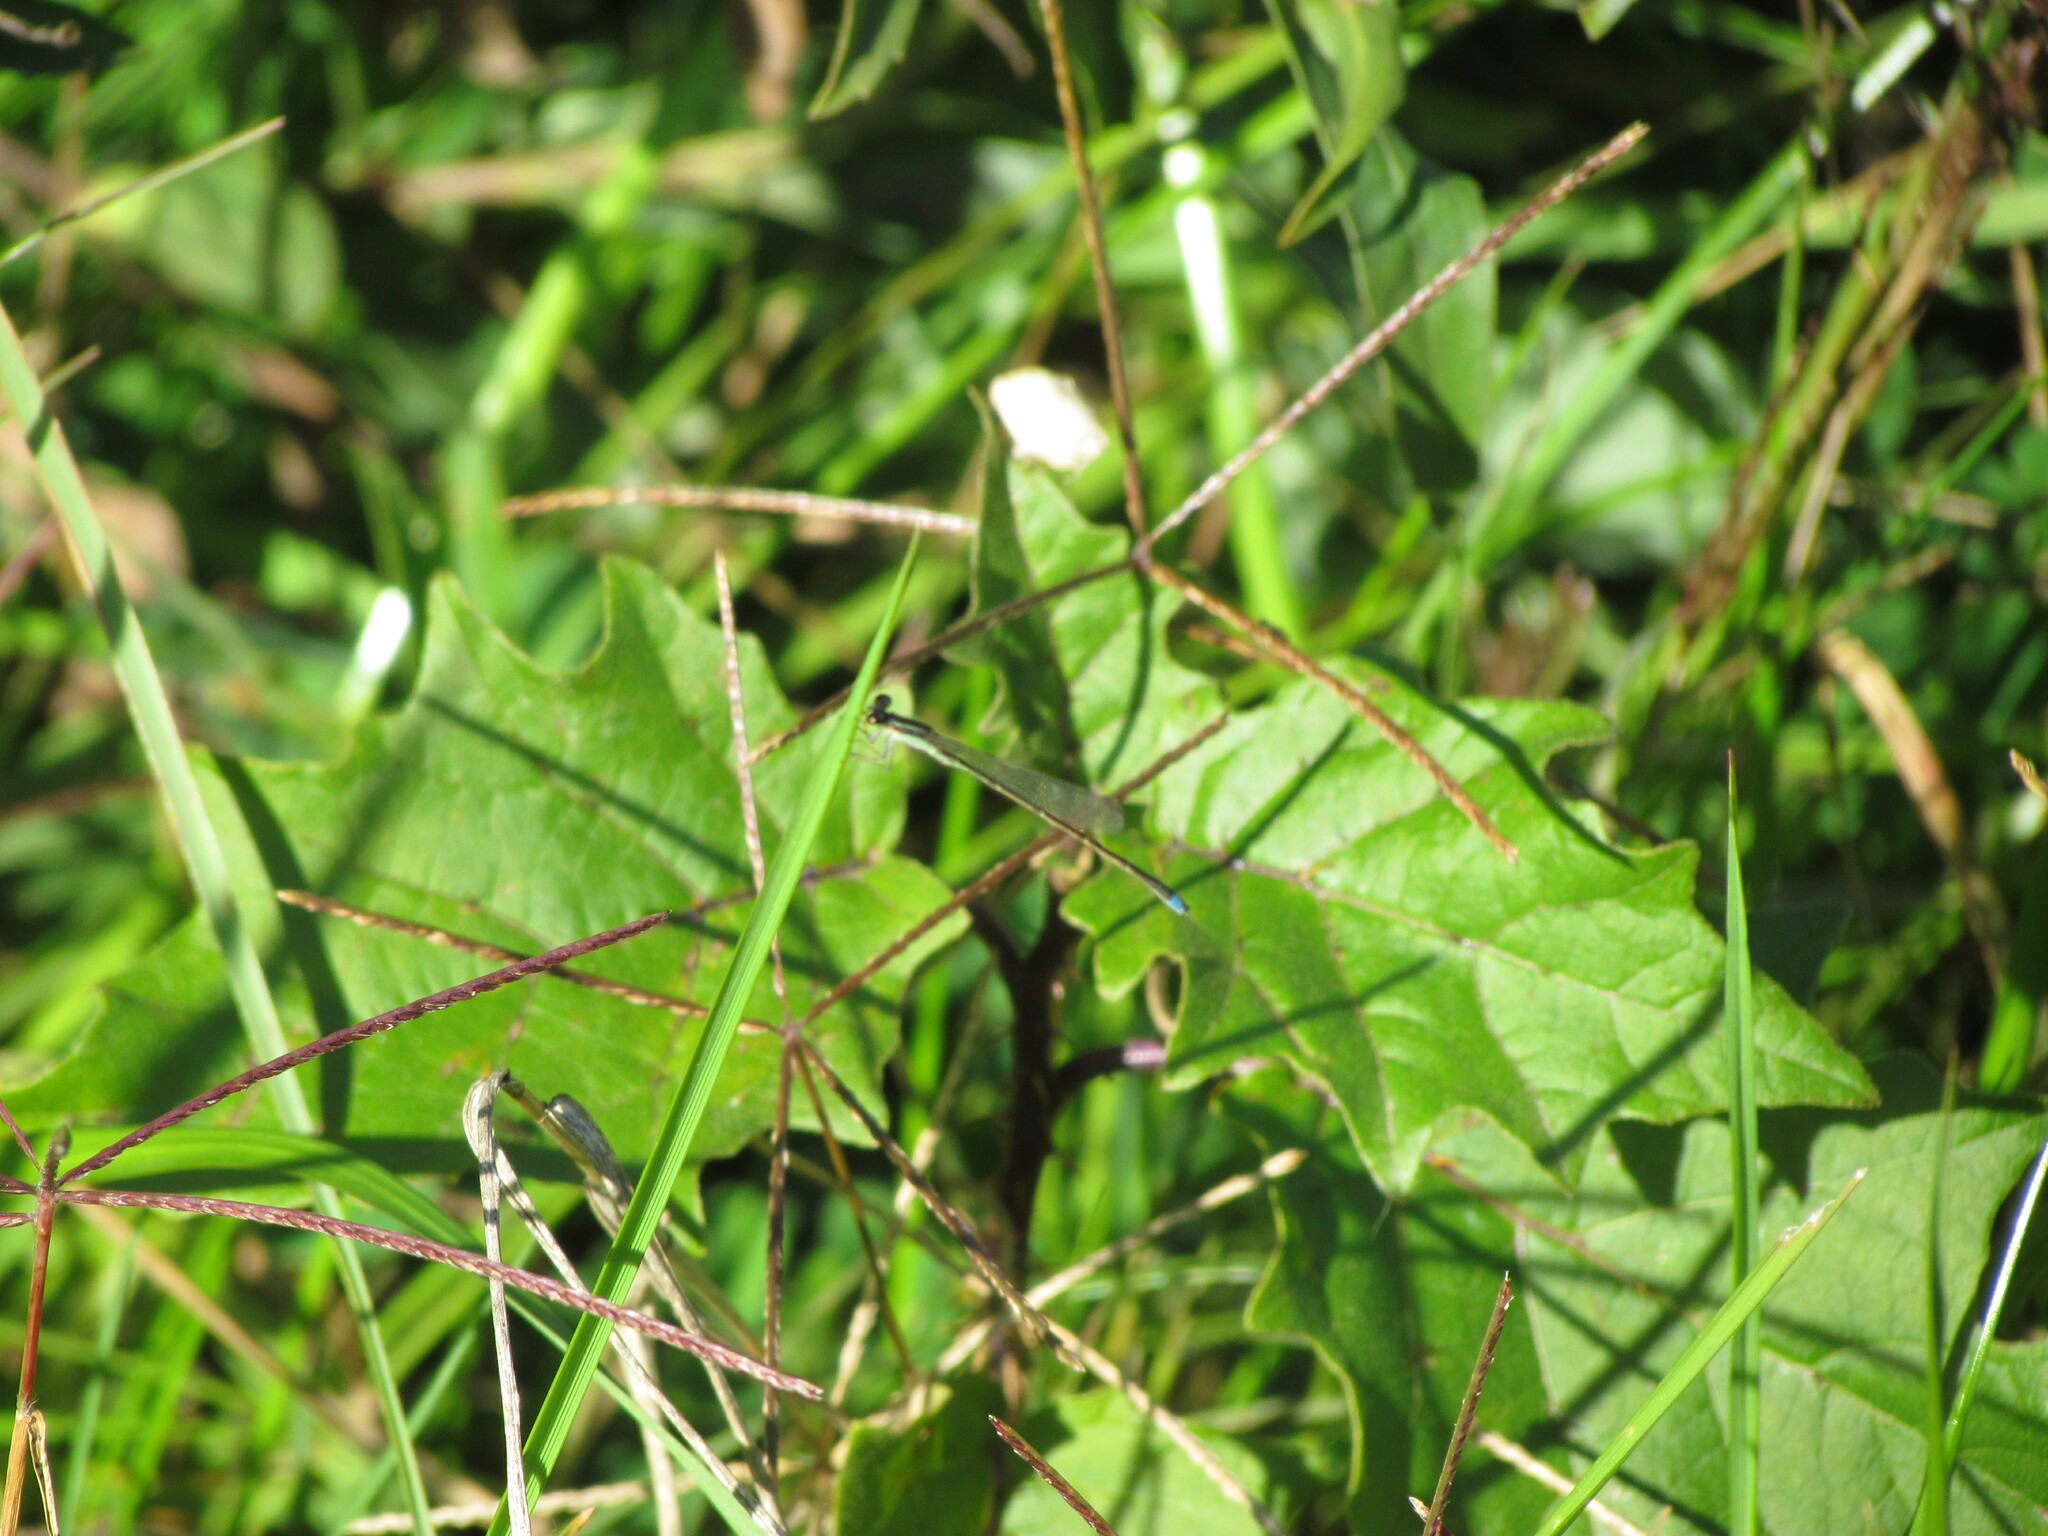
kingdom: Animalia
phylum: Arthropoda
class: Insecta
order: Odonata
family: Coenagrionidae
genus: Argentagrion
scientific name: Argentagrion ambiguum
